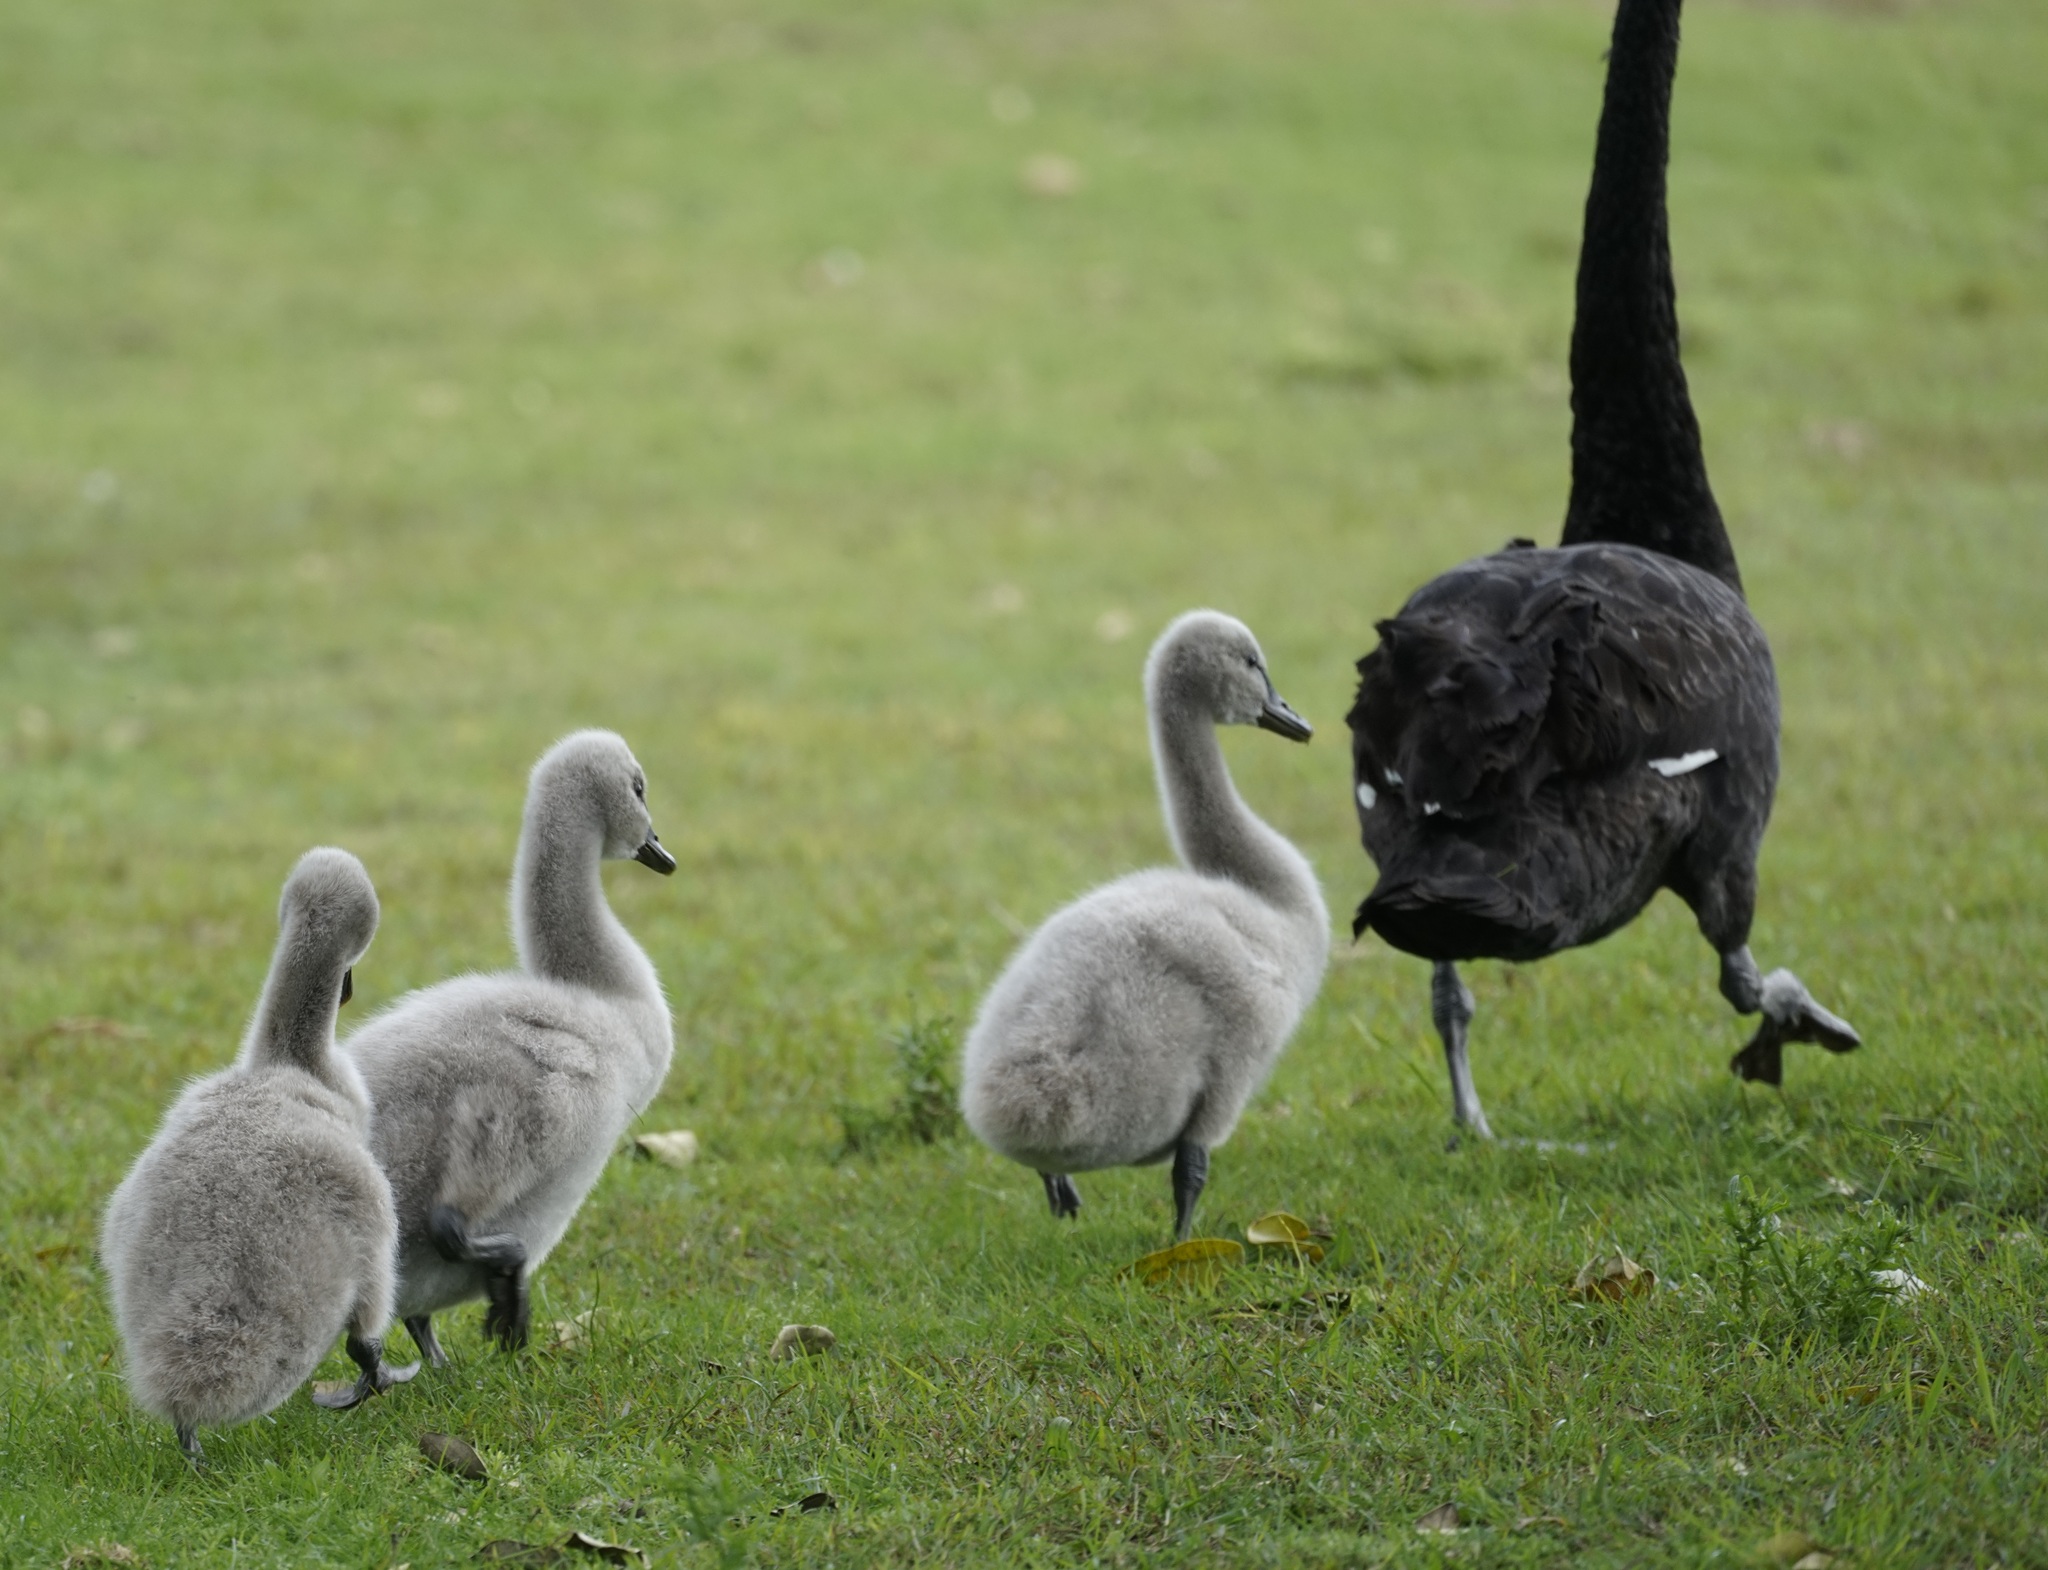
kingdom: Animalia
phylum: Chordata
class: Aves
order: Anseriformes
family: Anatidae
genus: Cygnus
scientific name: Cygnus atratus
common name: Black swan
